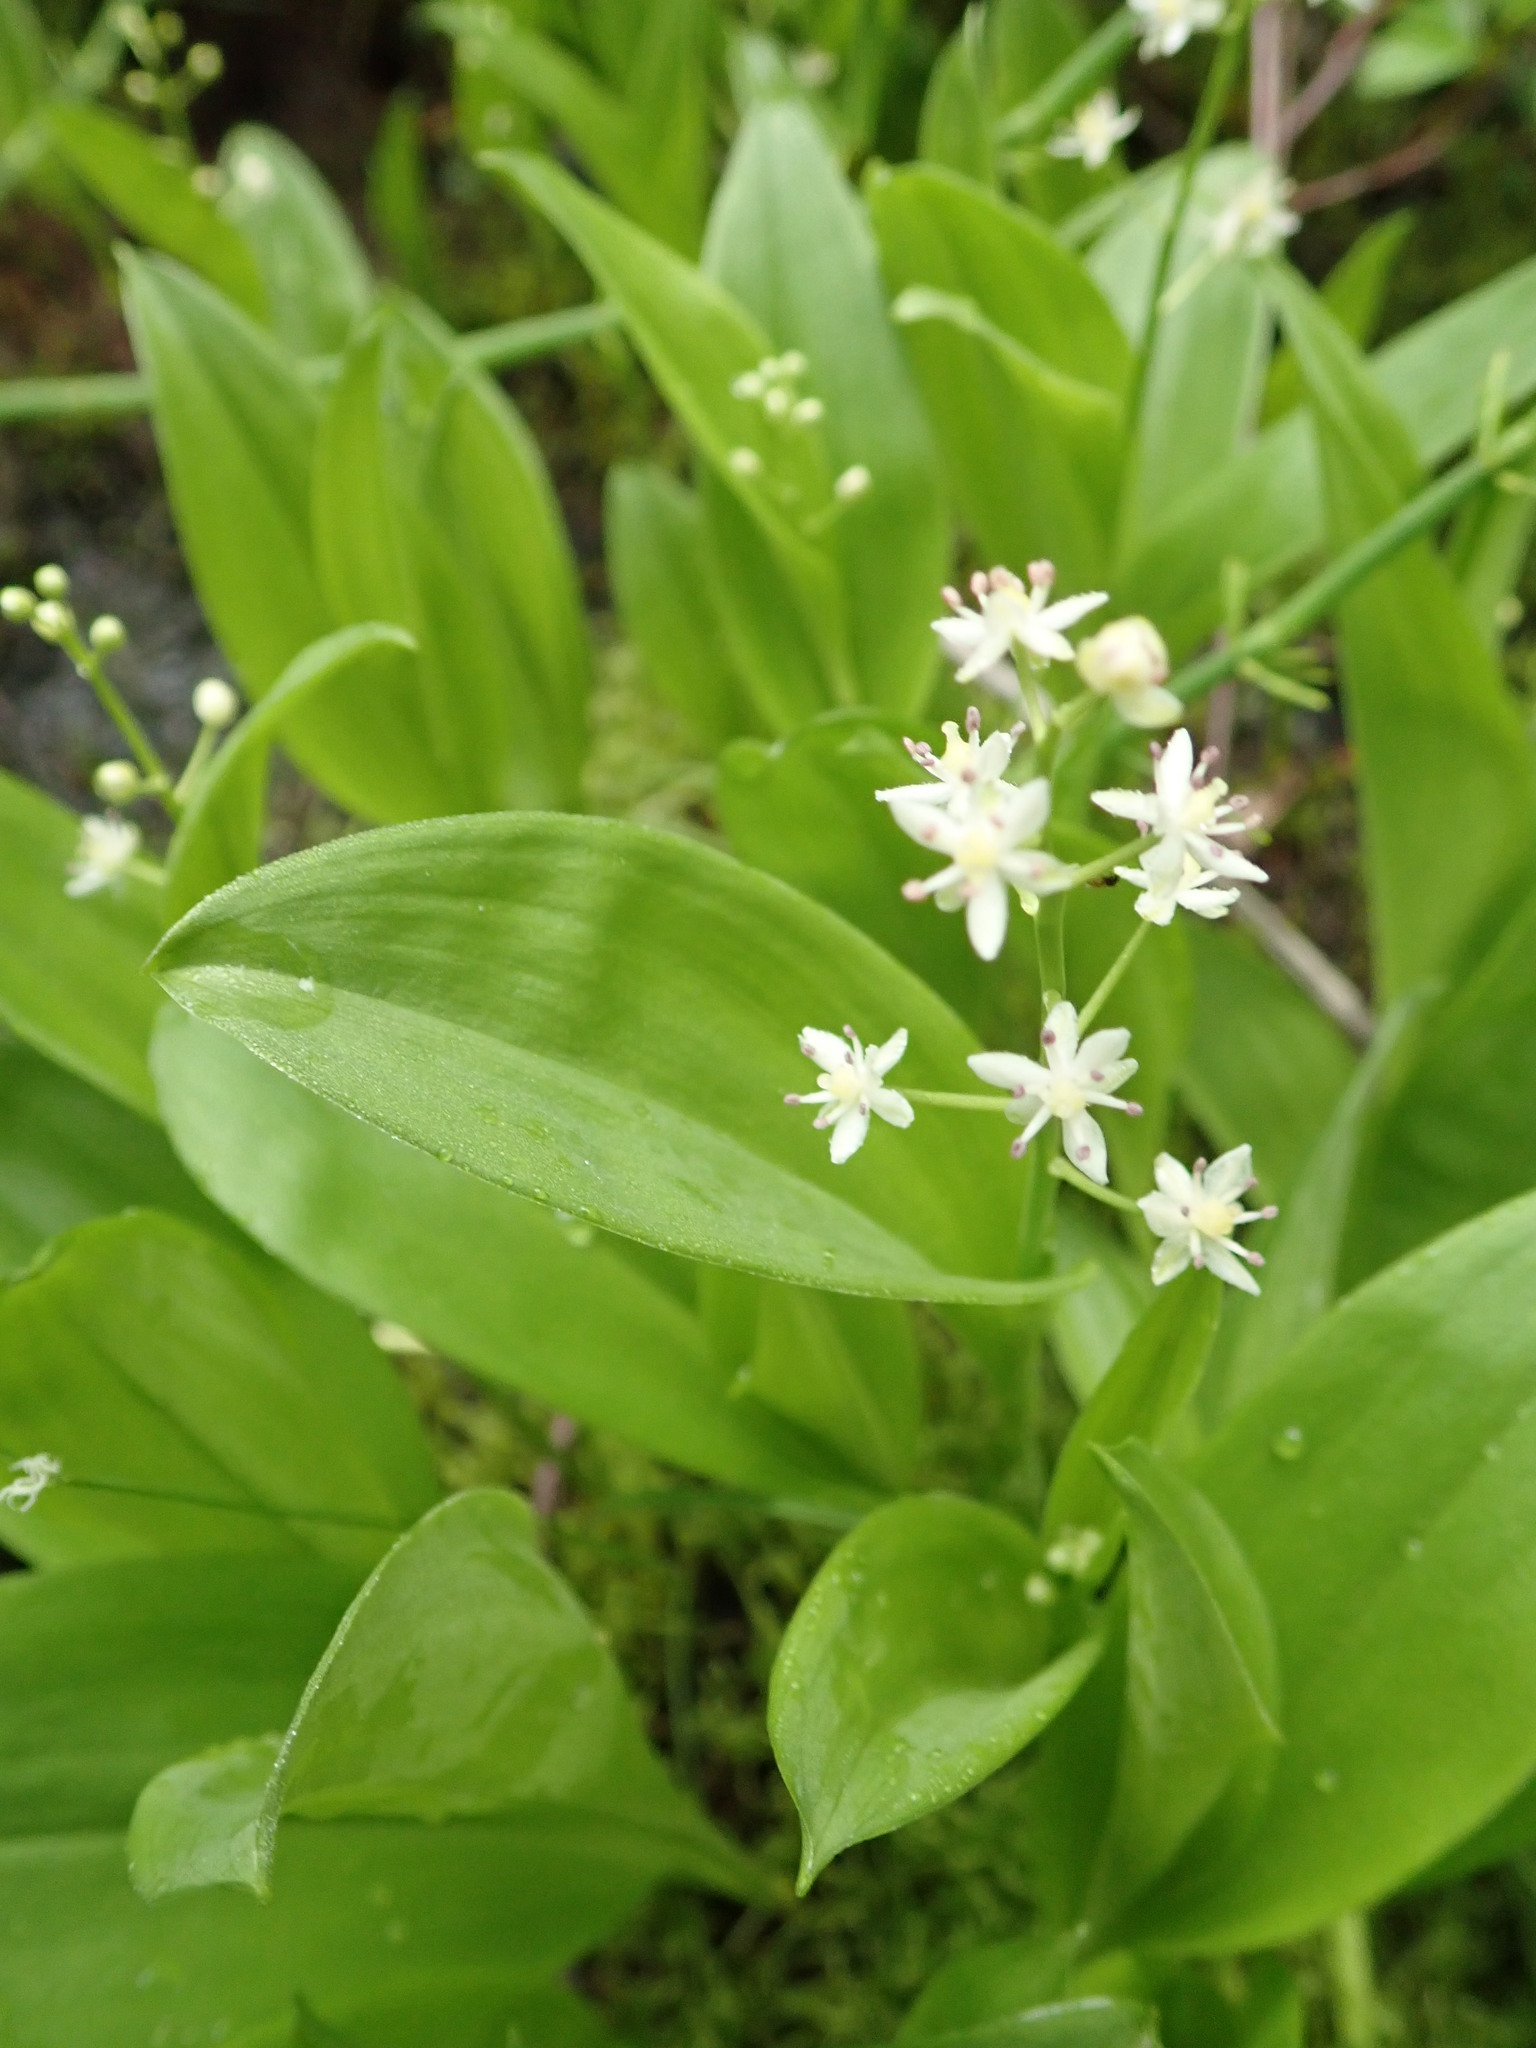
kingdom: Plantae
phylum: Tracheophyta
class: Liliopsida
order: Asparagales
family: Asparagaceae
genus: Maianthemum
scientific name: Maianthemum trifolium
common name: Swamp false solomon's seal
